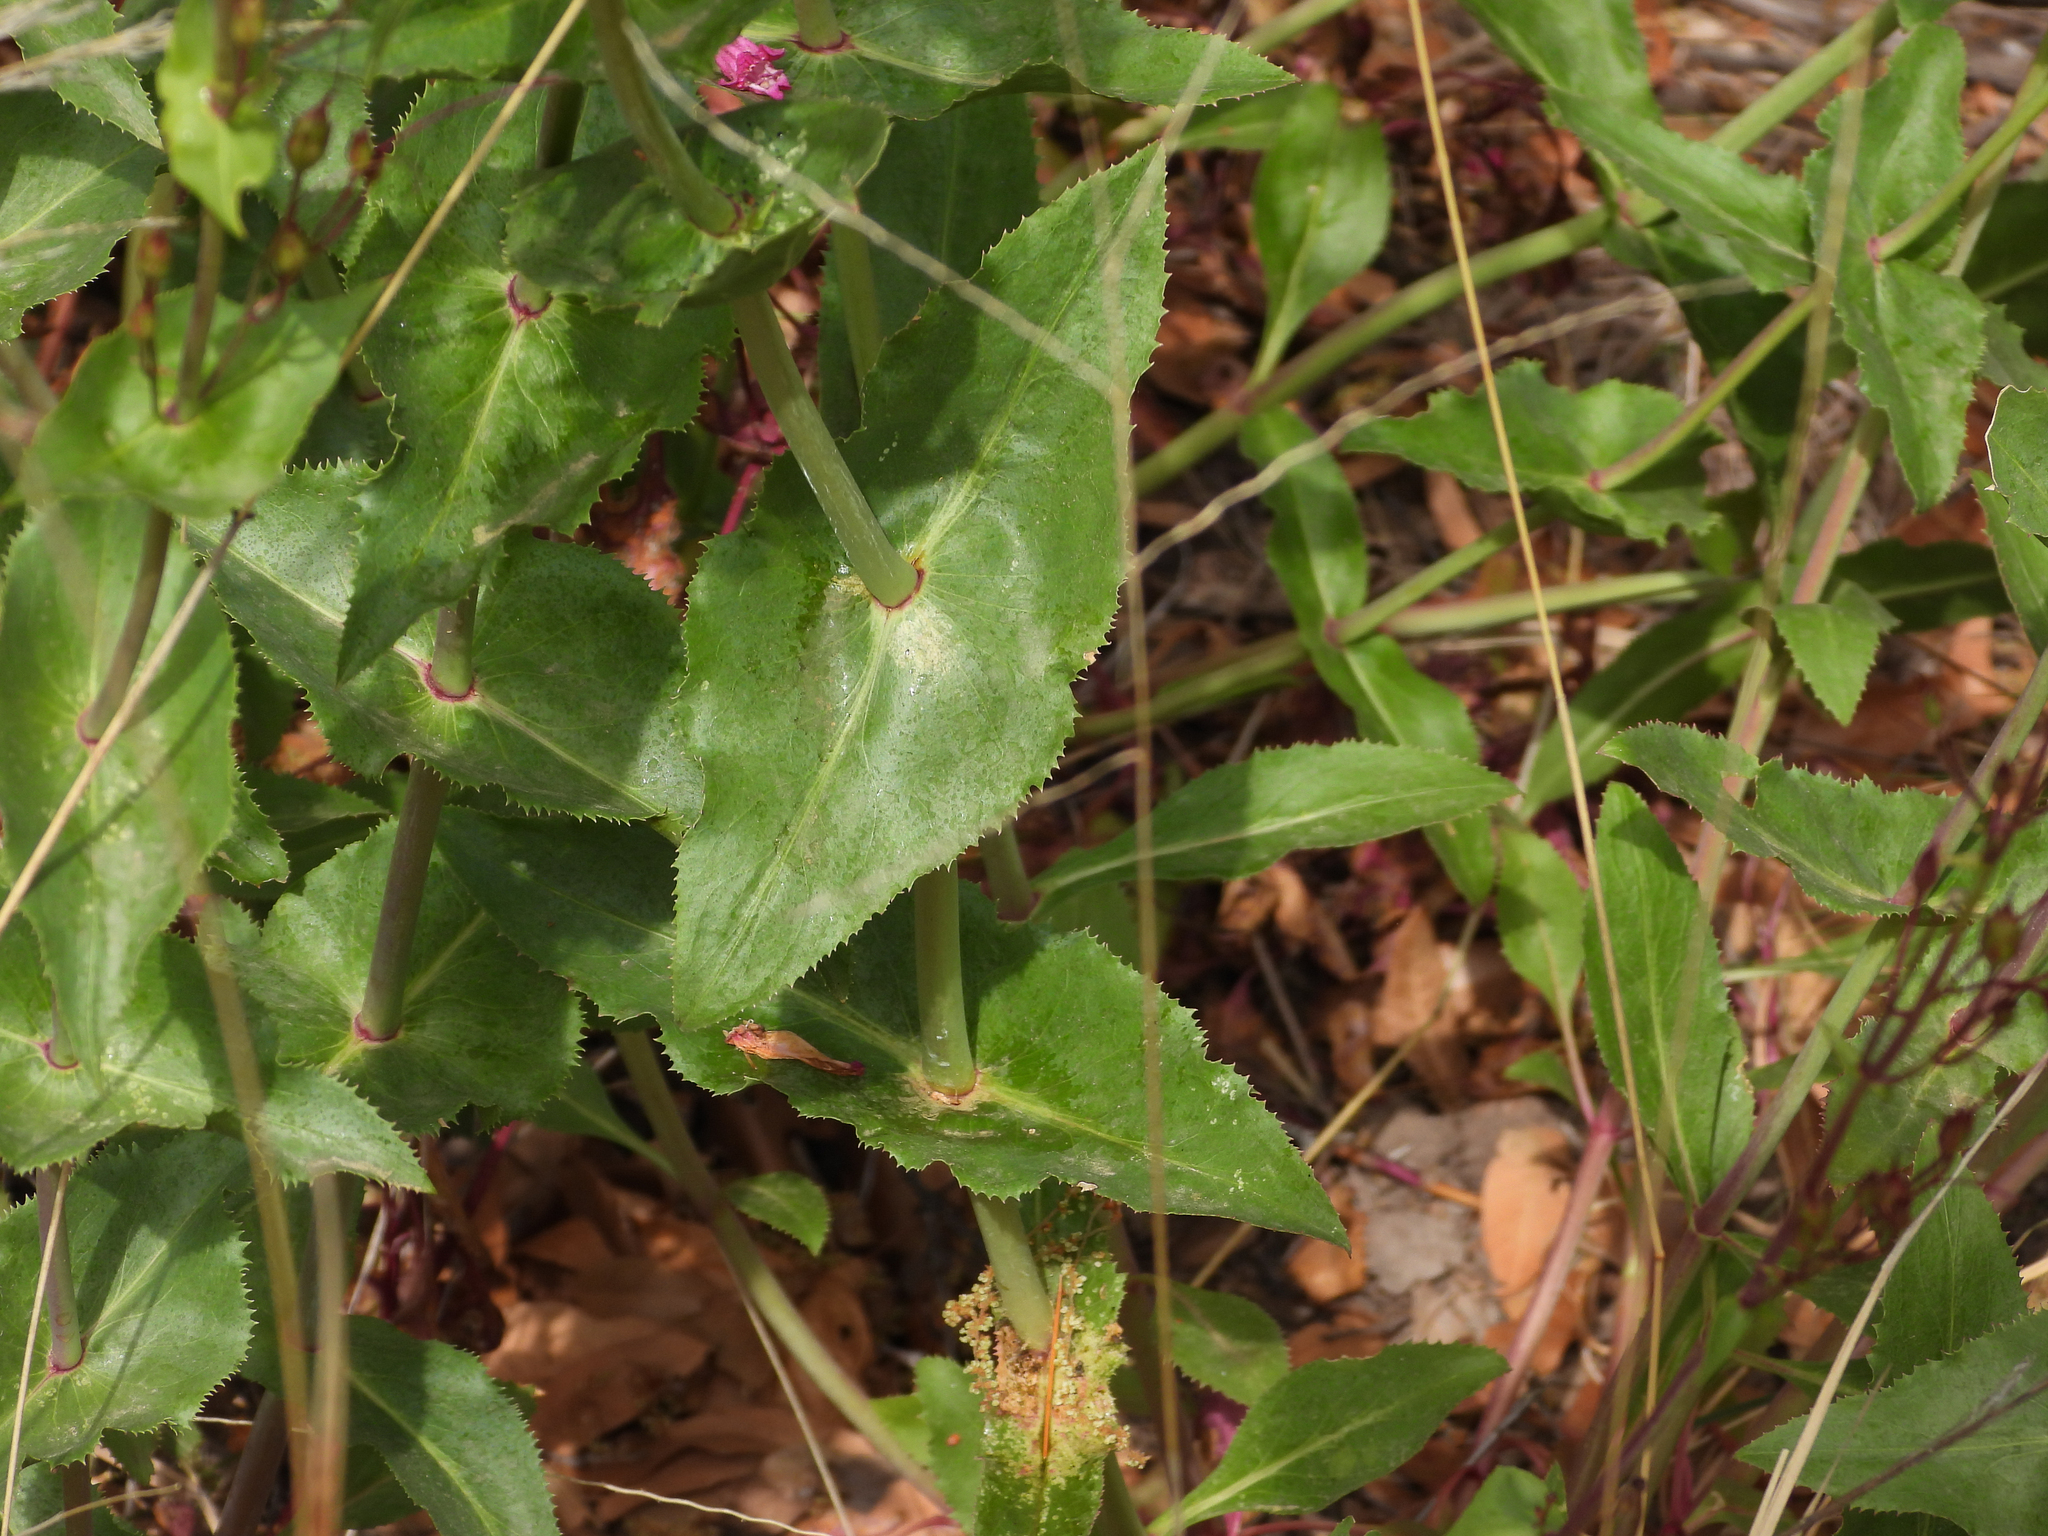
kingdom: Plantae
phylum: Tracheophyta
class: Magnoliopsida
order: Lamiales
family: Plantaginaceae
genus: Penstemon
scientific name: Penstemon pseudospectabilis
